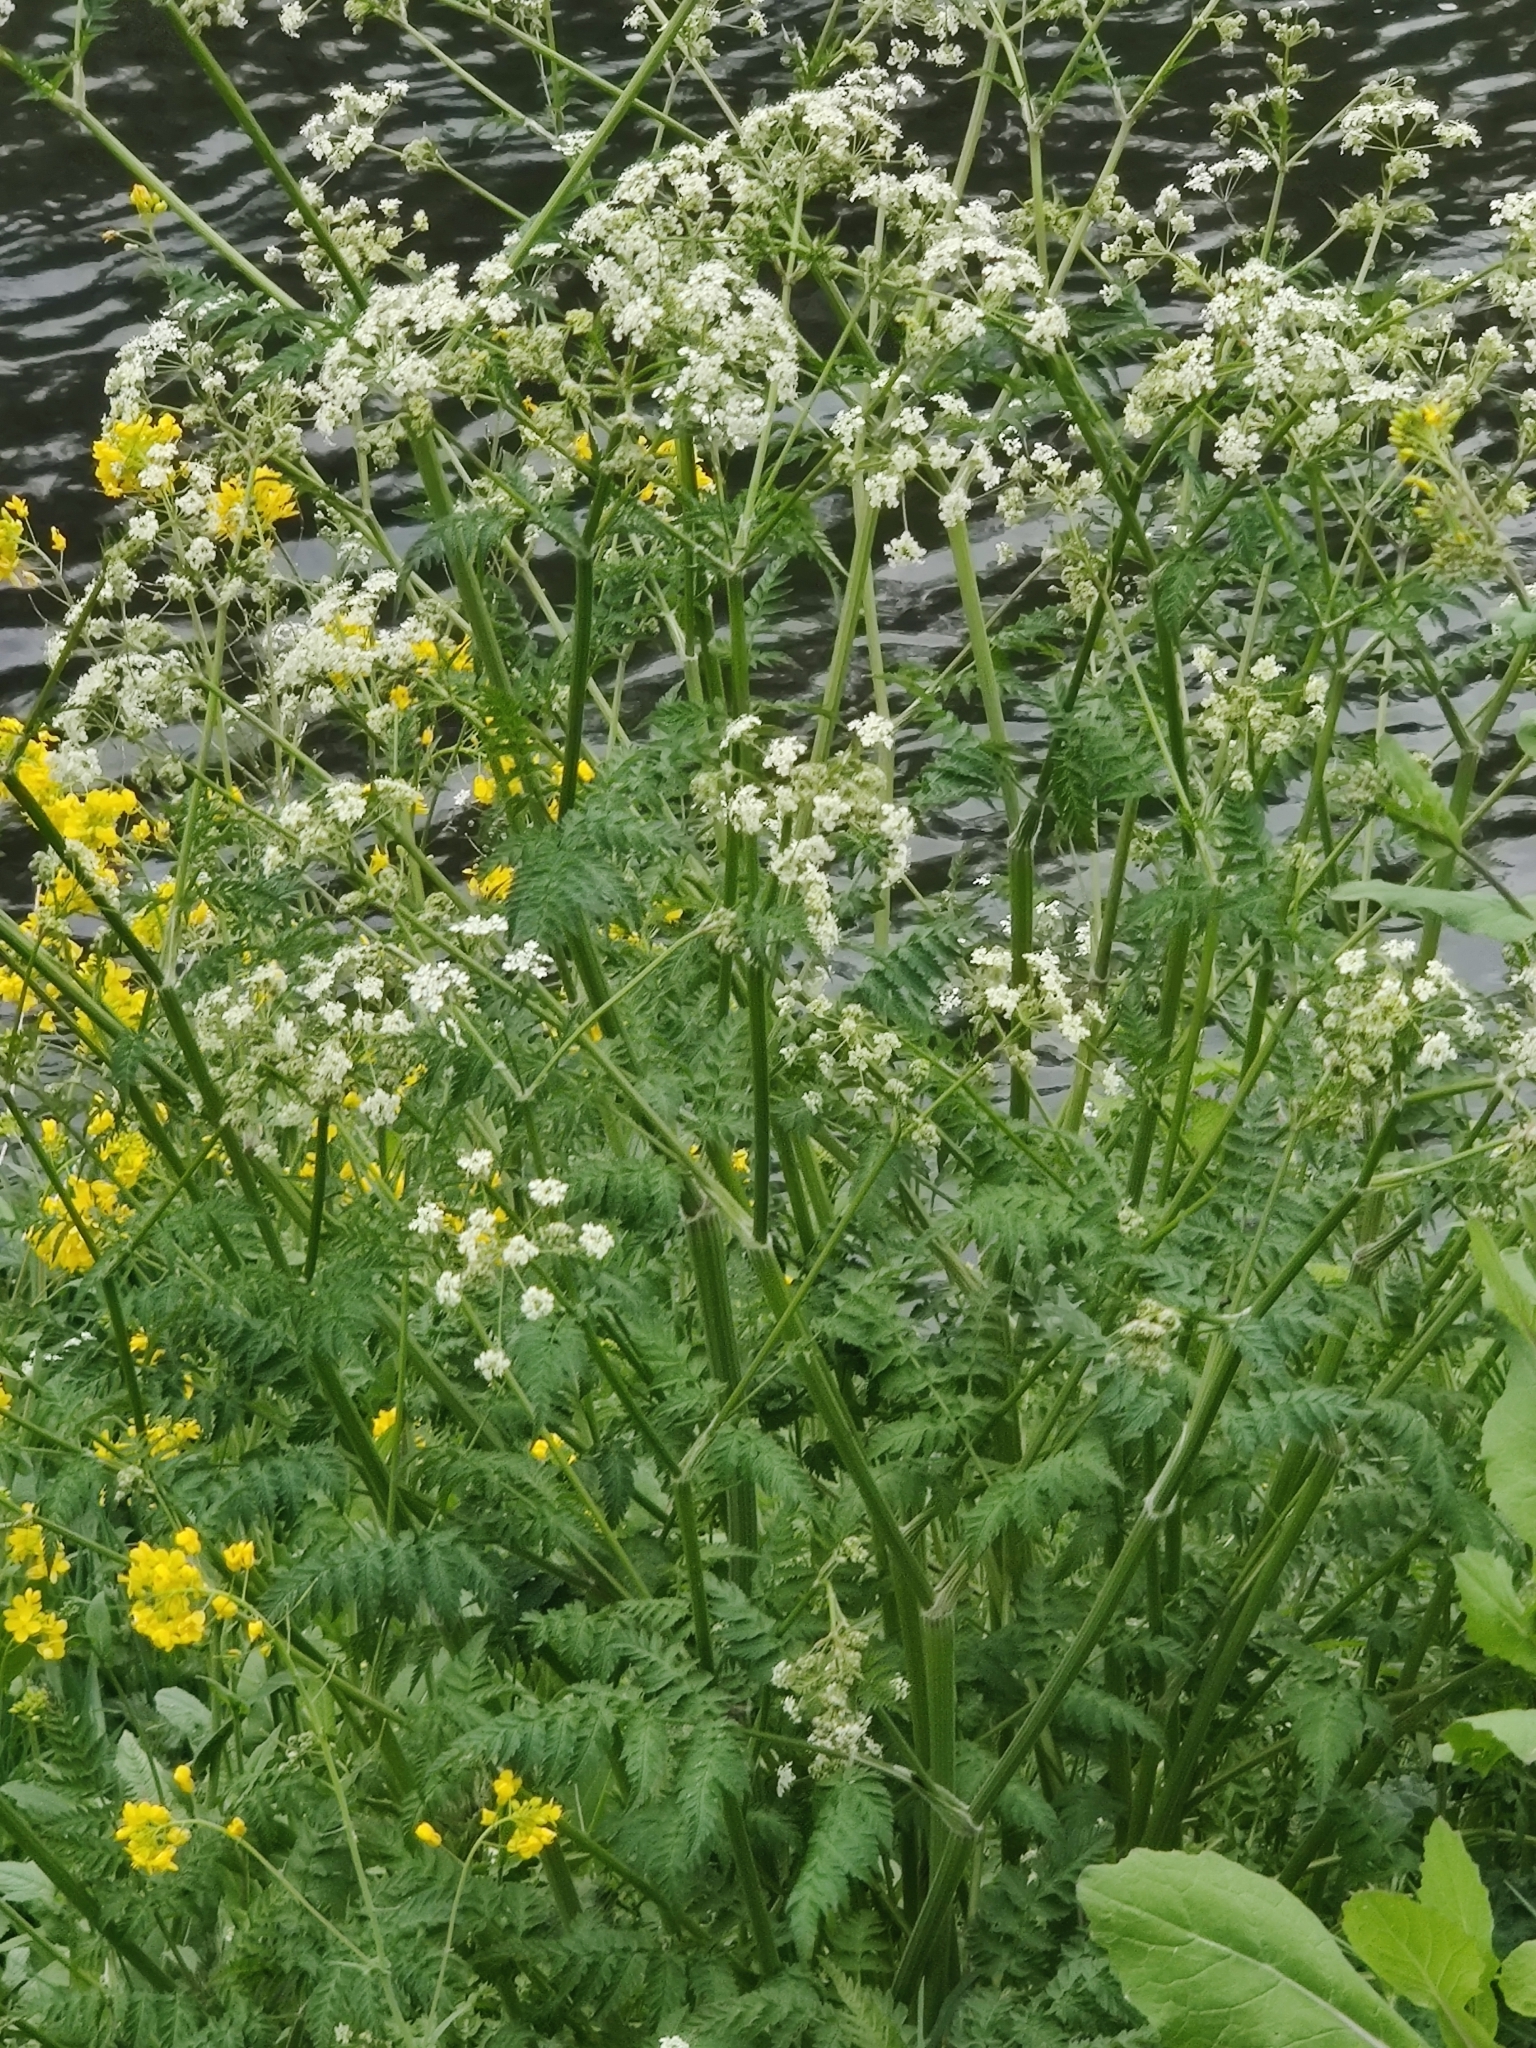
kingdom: Plantae
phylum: Tracheophyta
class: Magnoliopsida
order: Apiales
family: Apiaceae
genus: Anthriscus
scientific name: Anthriscus sylvestris
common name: Cow parsley
